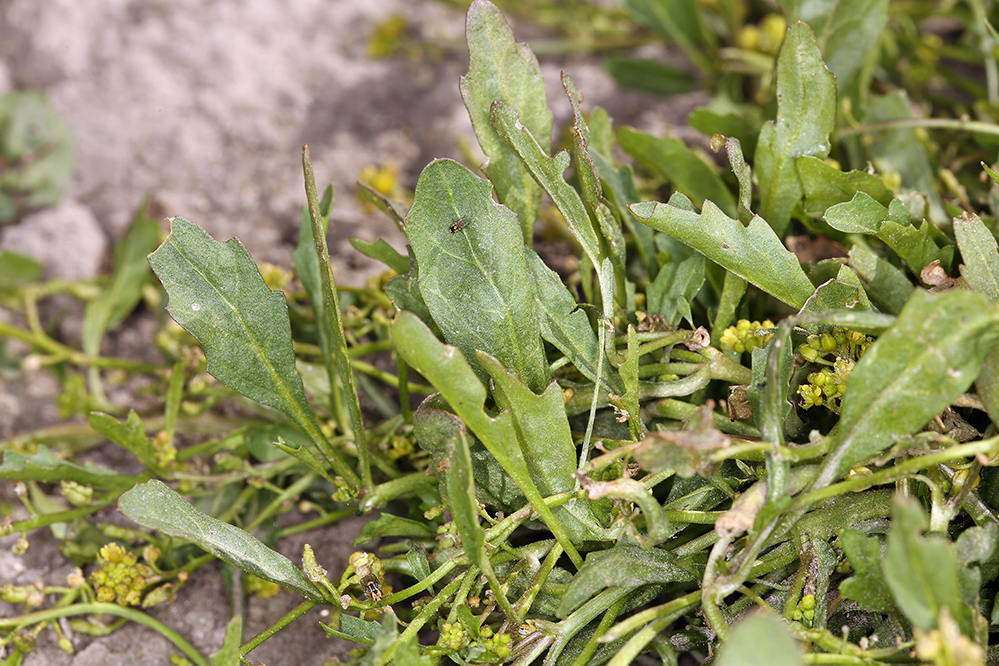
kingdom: Plantae
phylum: Tracheophyta
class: Magnoliopsida
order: Brassicales
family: Brassicaceae
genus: Rorippa
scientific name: Rorippa curvipes
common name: Blunt-leaved watercress
